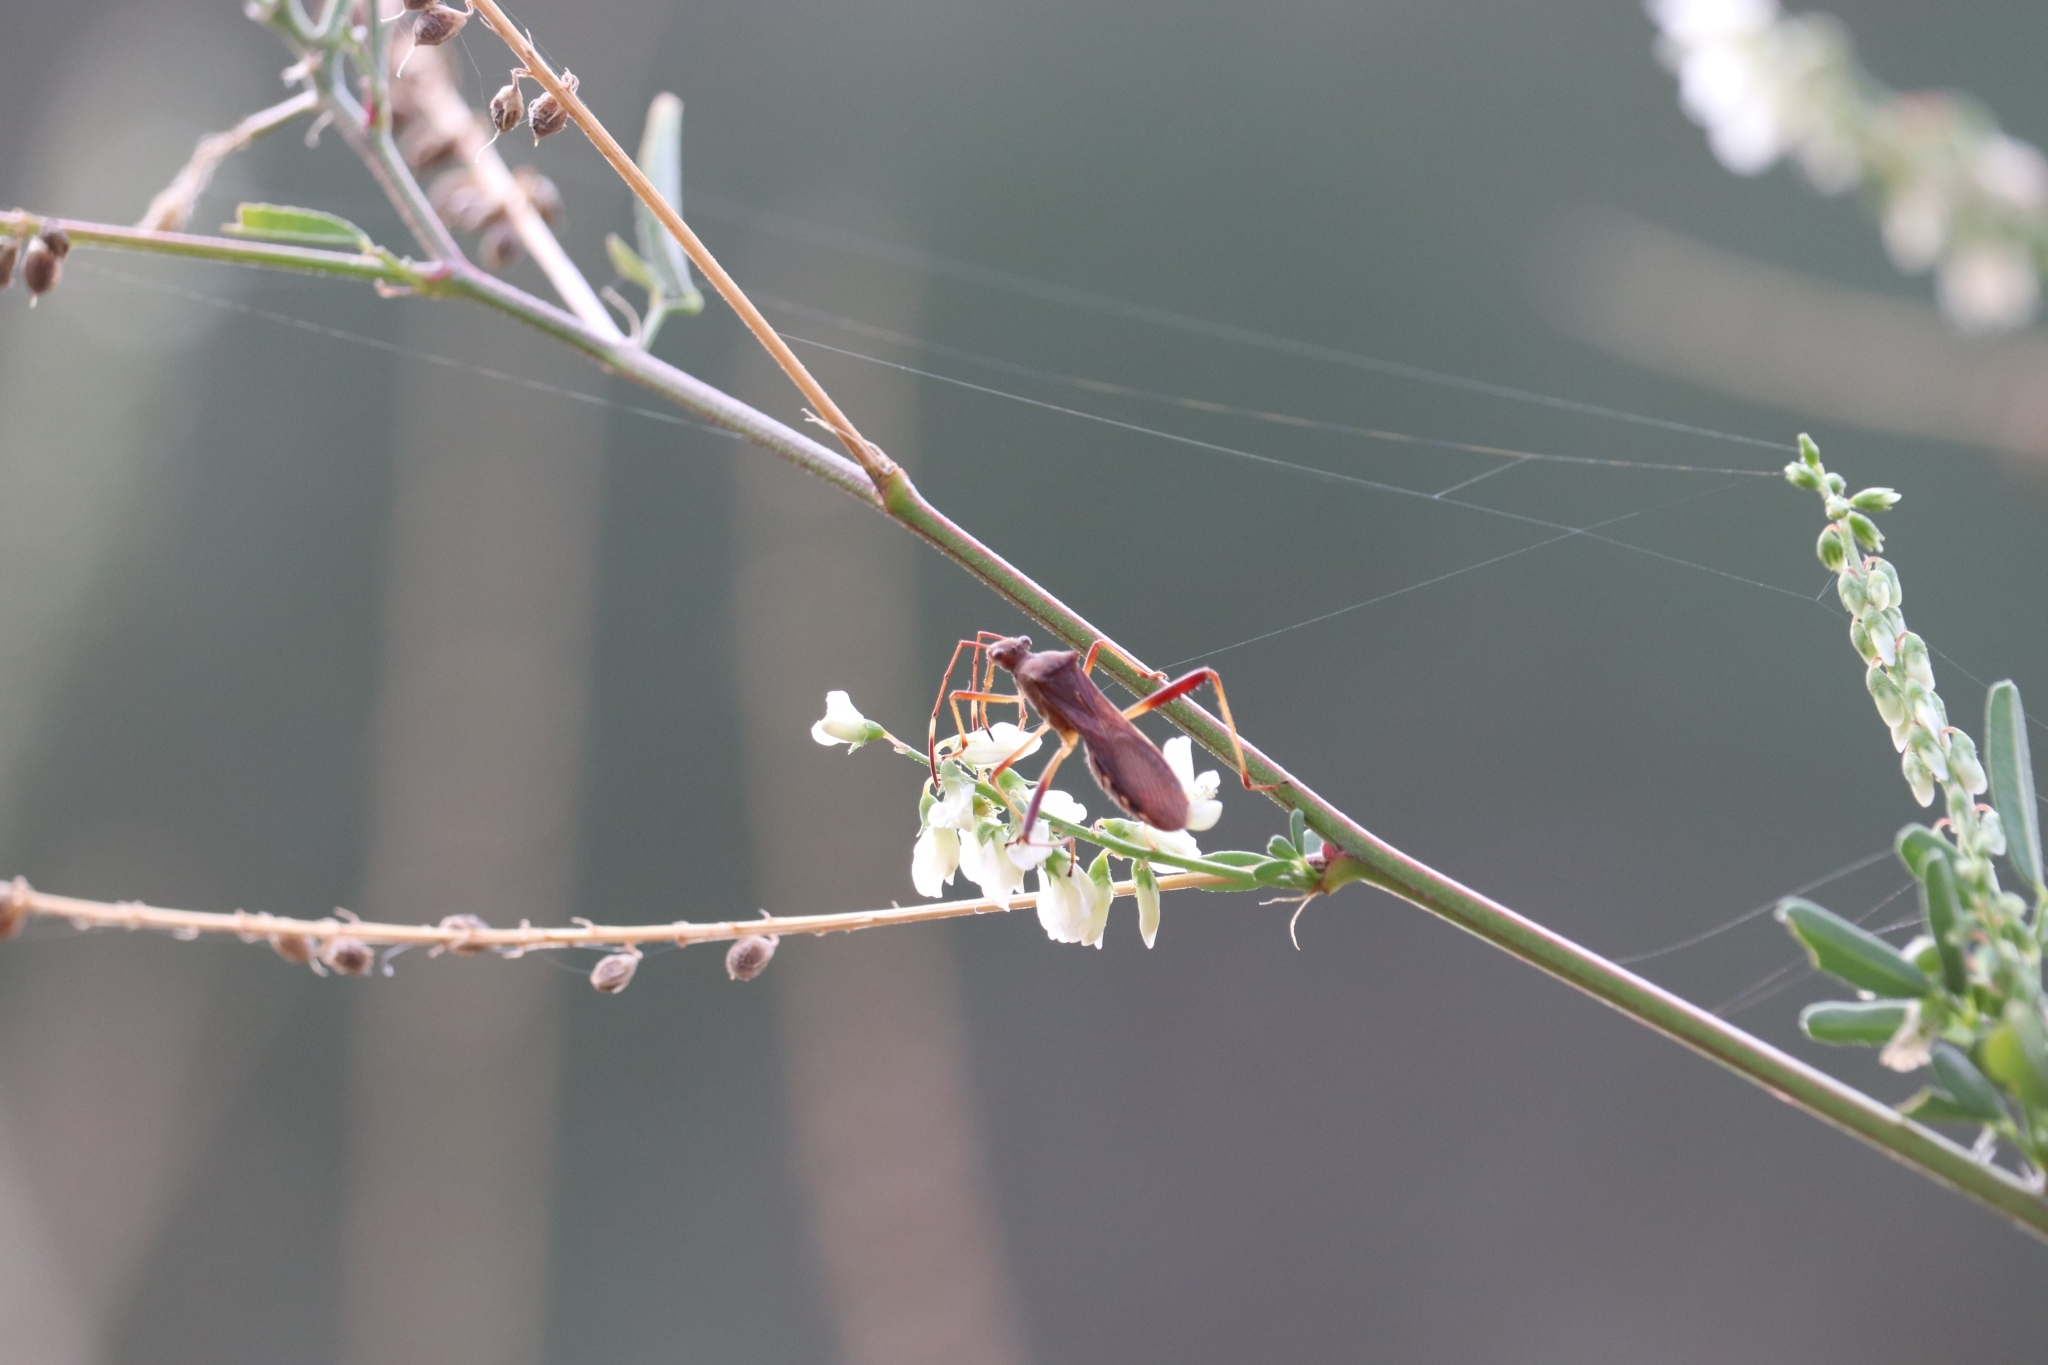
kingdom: Animalia
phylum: Arthropoda
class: Insecta
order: Hemiptera
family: Alydidae
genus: Megalotomus
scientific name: Megalotomus quinquespinosus
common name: Lupine bug
